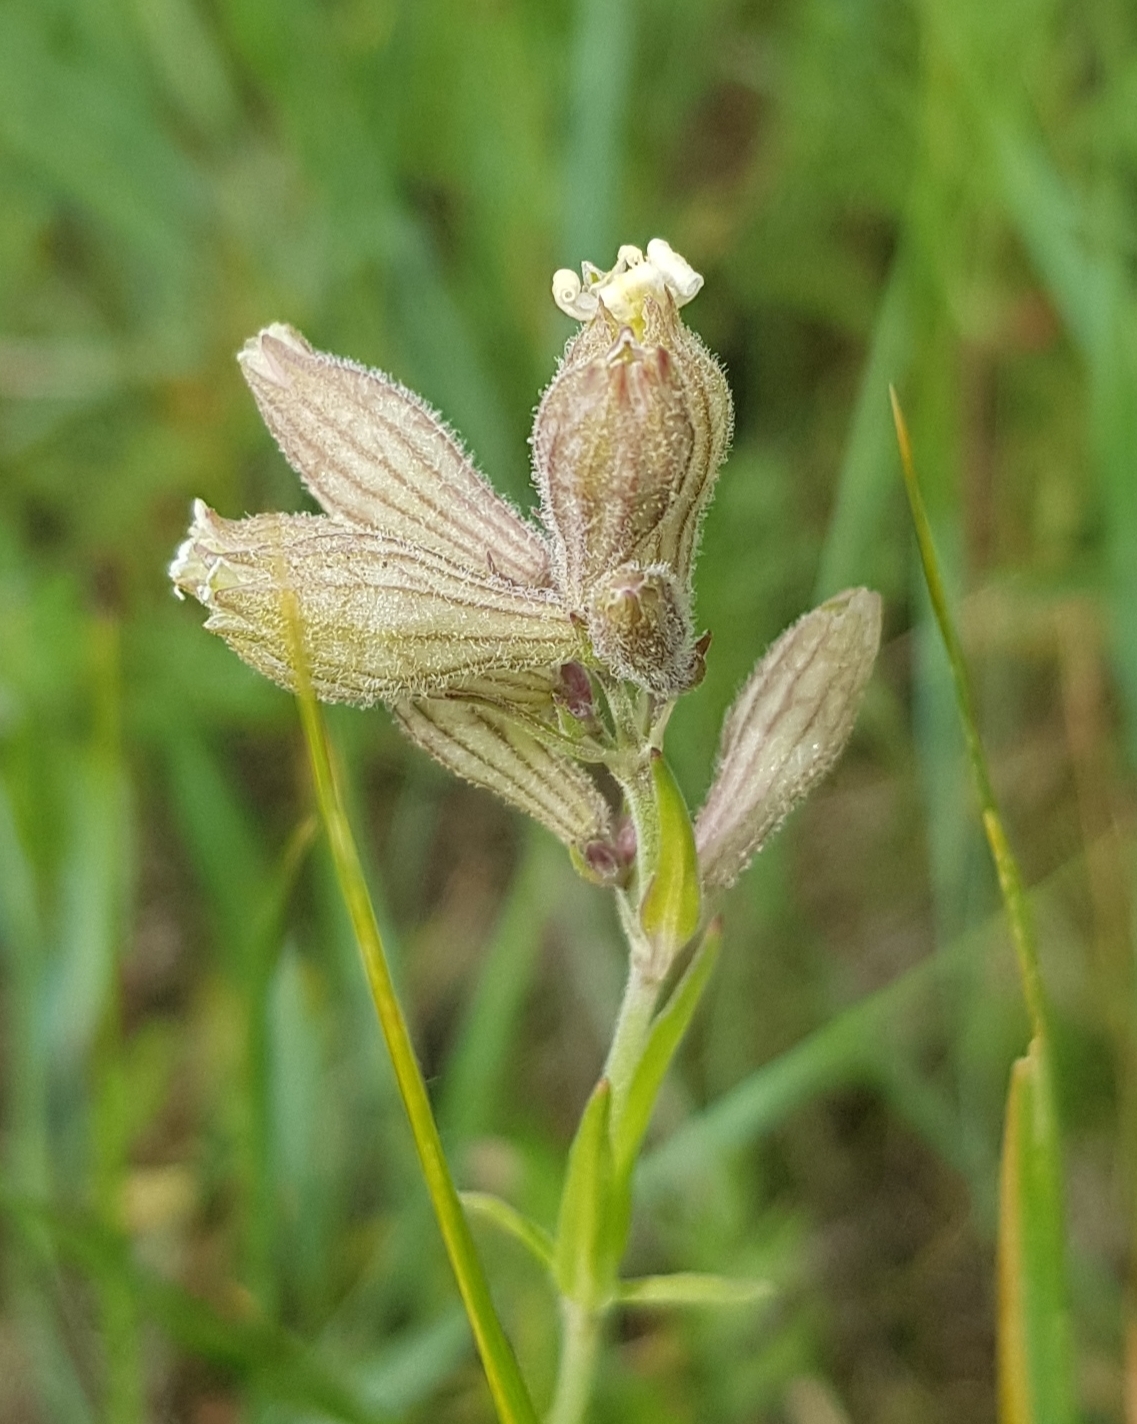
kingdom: Plantae
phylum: Tracheophyta
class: Magnoliopsida
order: Caryophyllales
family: Caryophyllaceae
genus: Silene
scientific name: Silene repens
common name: Pink campion
